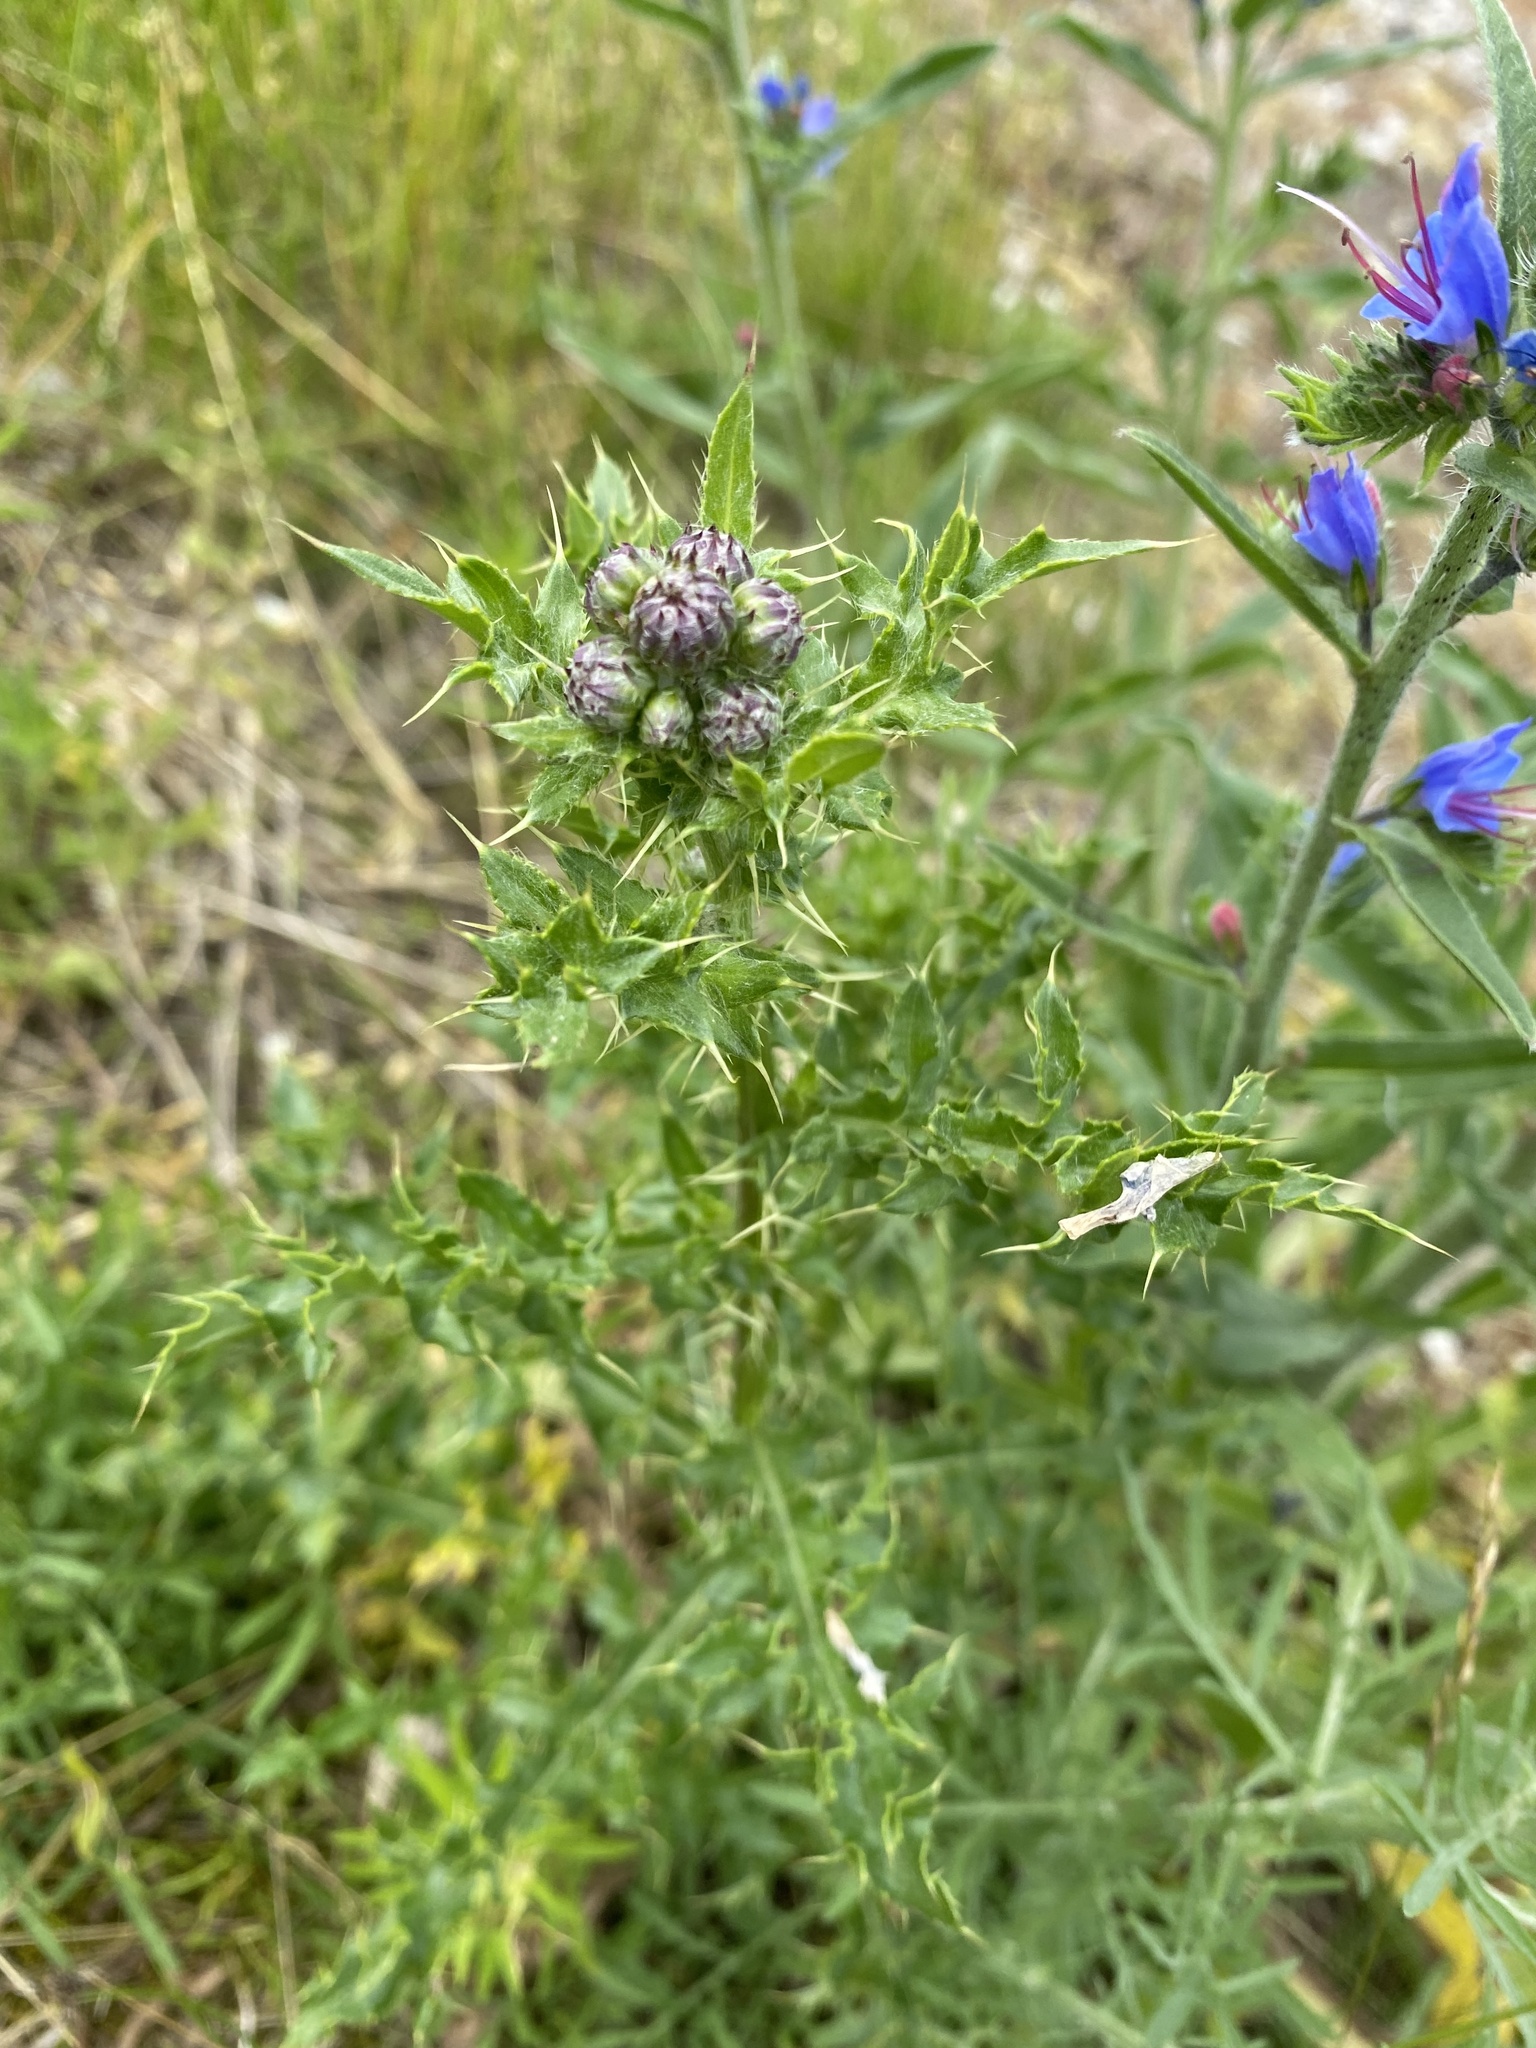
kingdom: Plantae
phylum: Tracheophyta
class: Magnoliopsida
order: Asterales
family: Asteraceae
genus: Cirsium
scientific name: Cirsium arvense
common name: Creeping thistle
